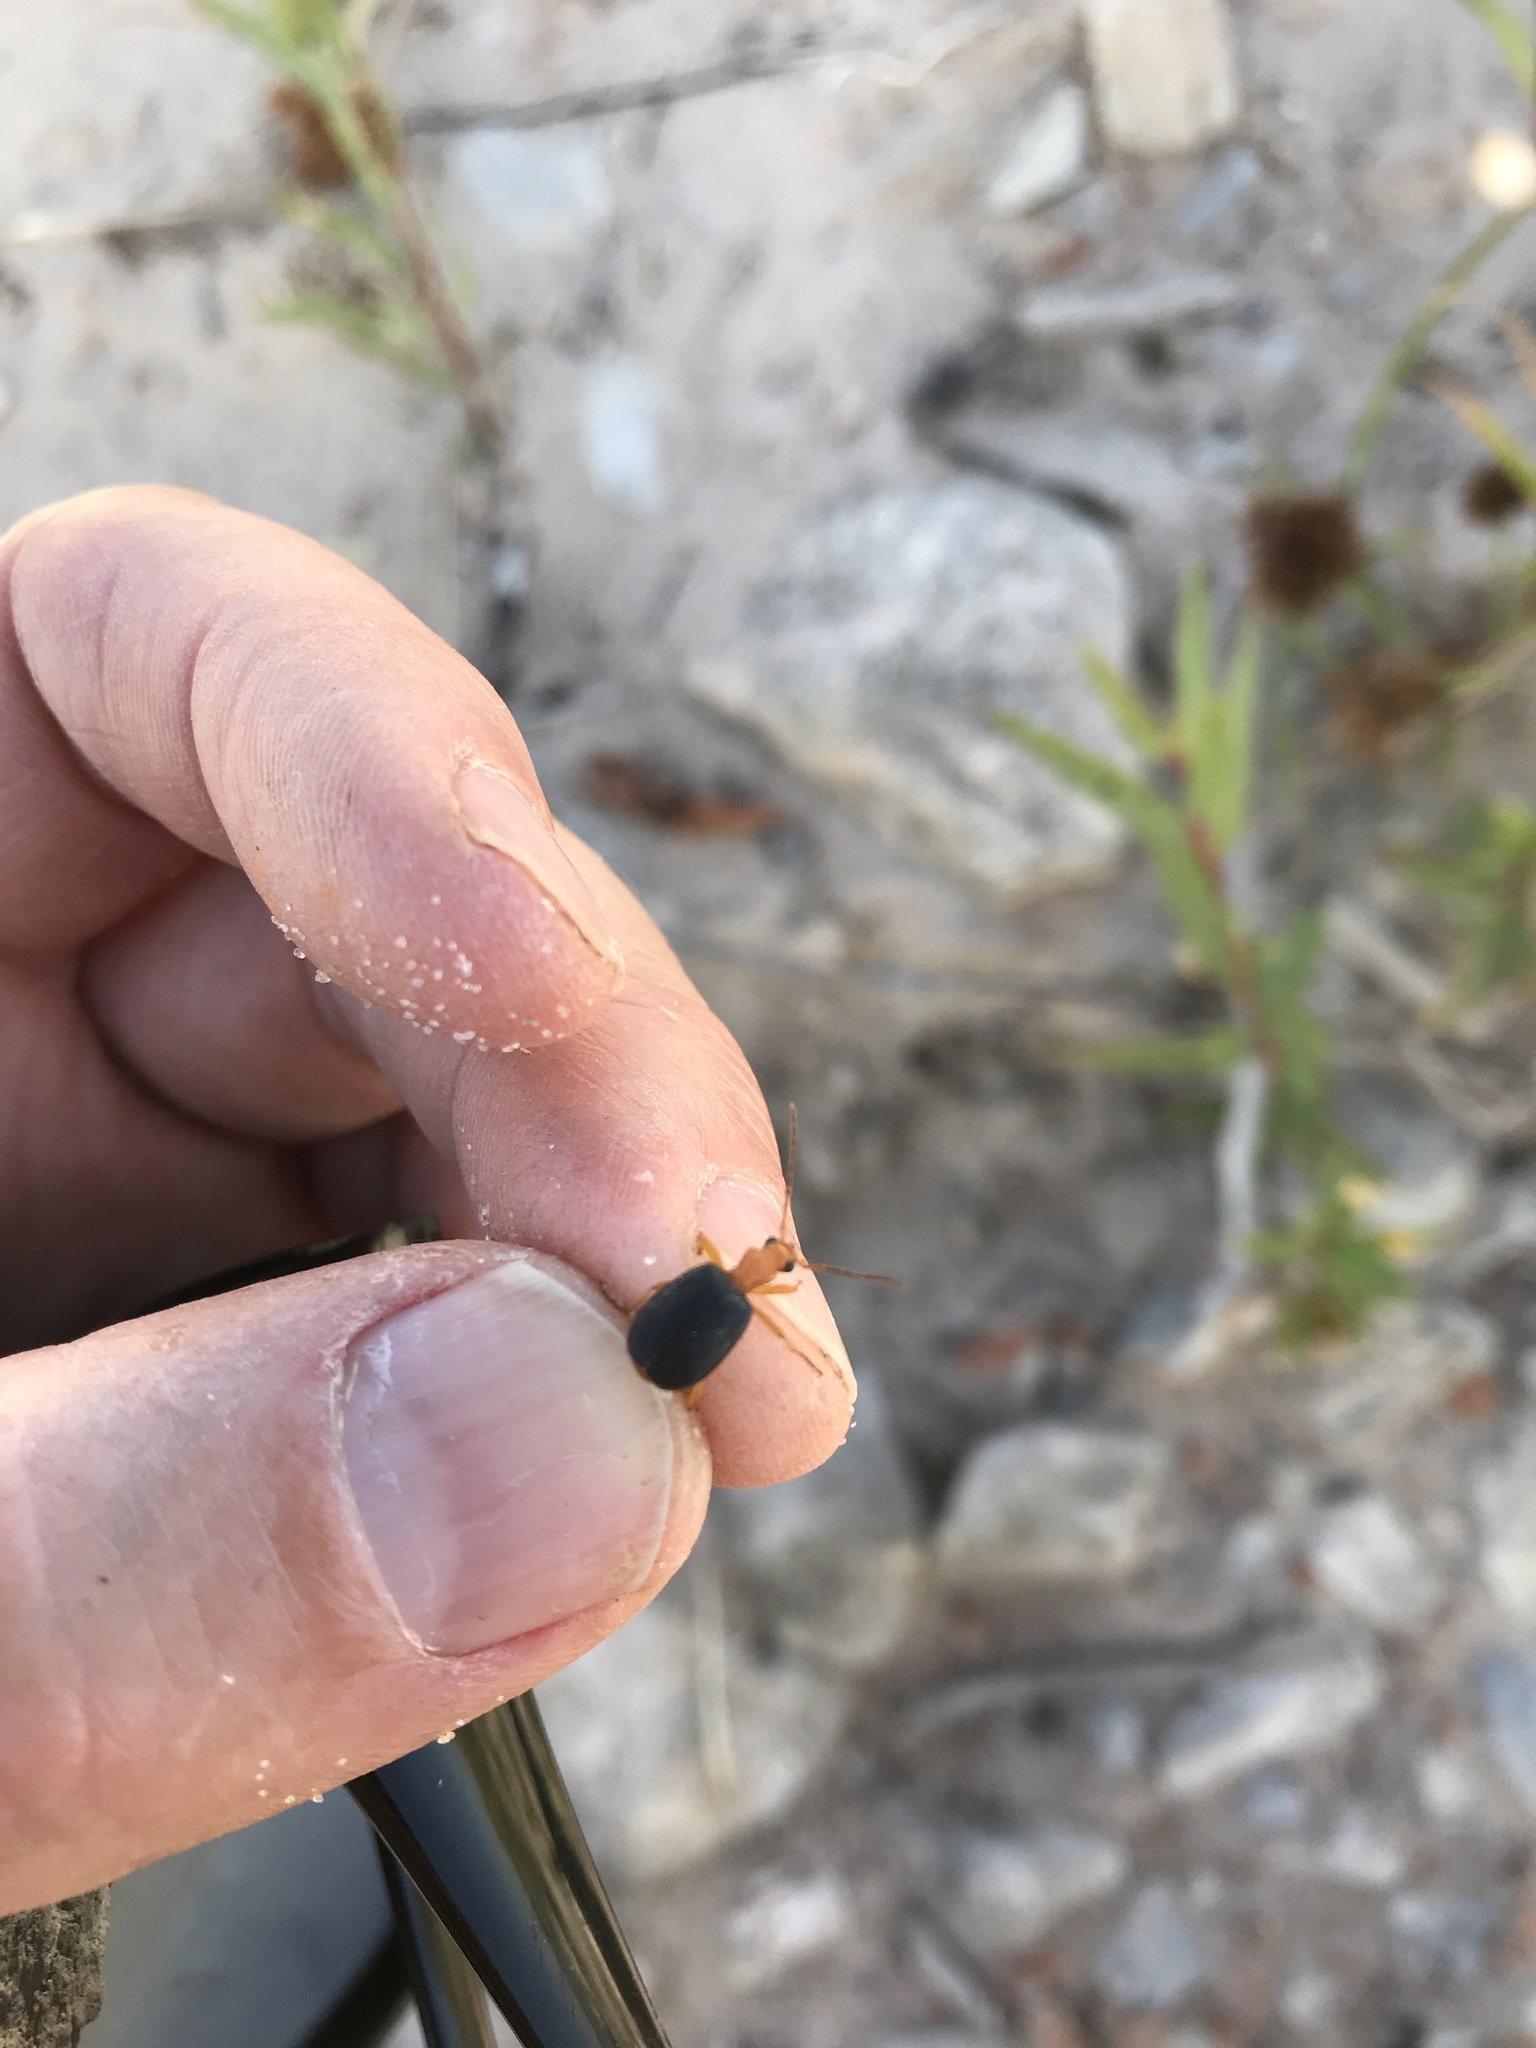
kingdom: Animalia
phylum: Arthropoda
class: Insecta
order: Coleoptera
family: Carabidae
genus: Brachinus
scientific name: Brachinus
